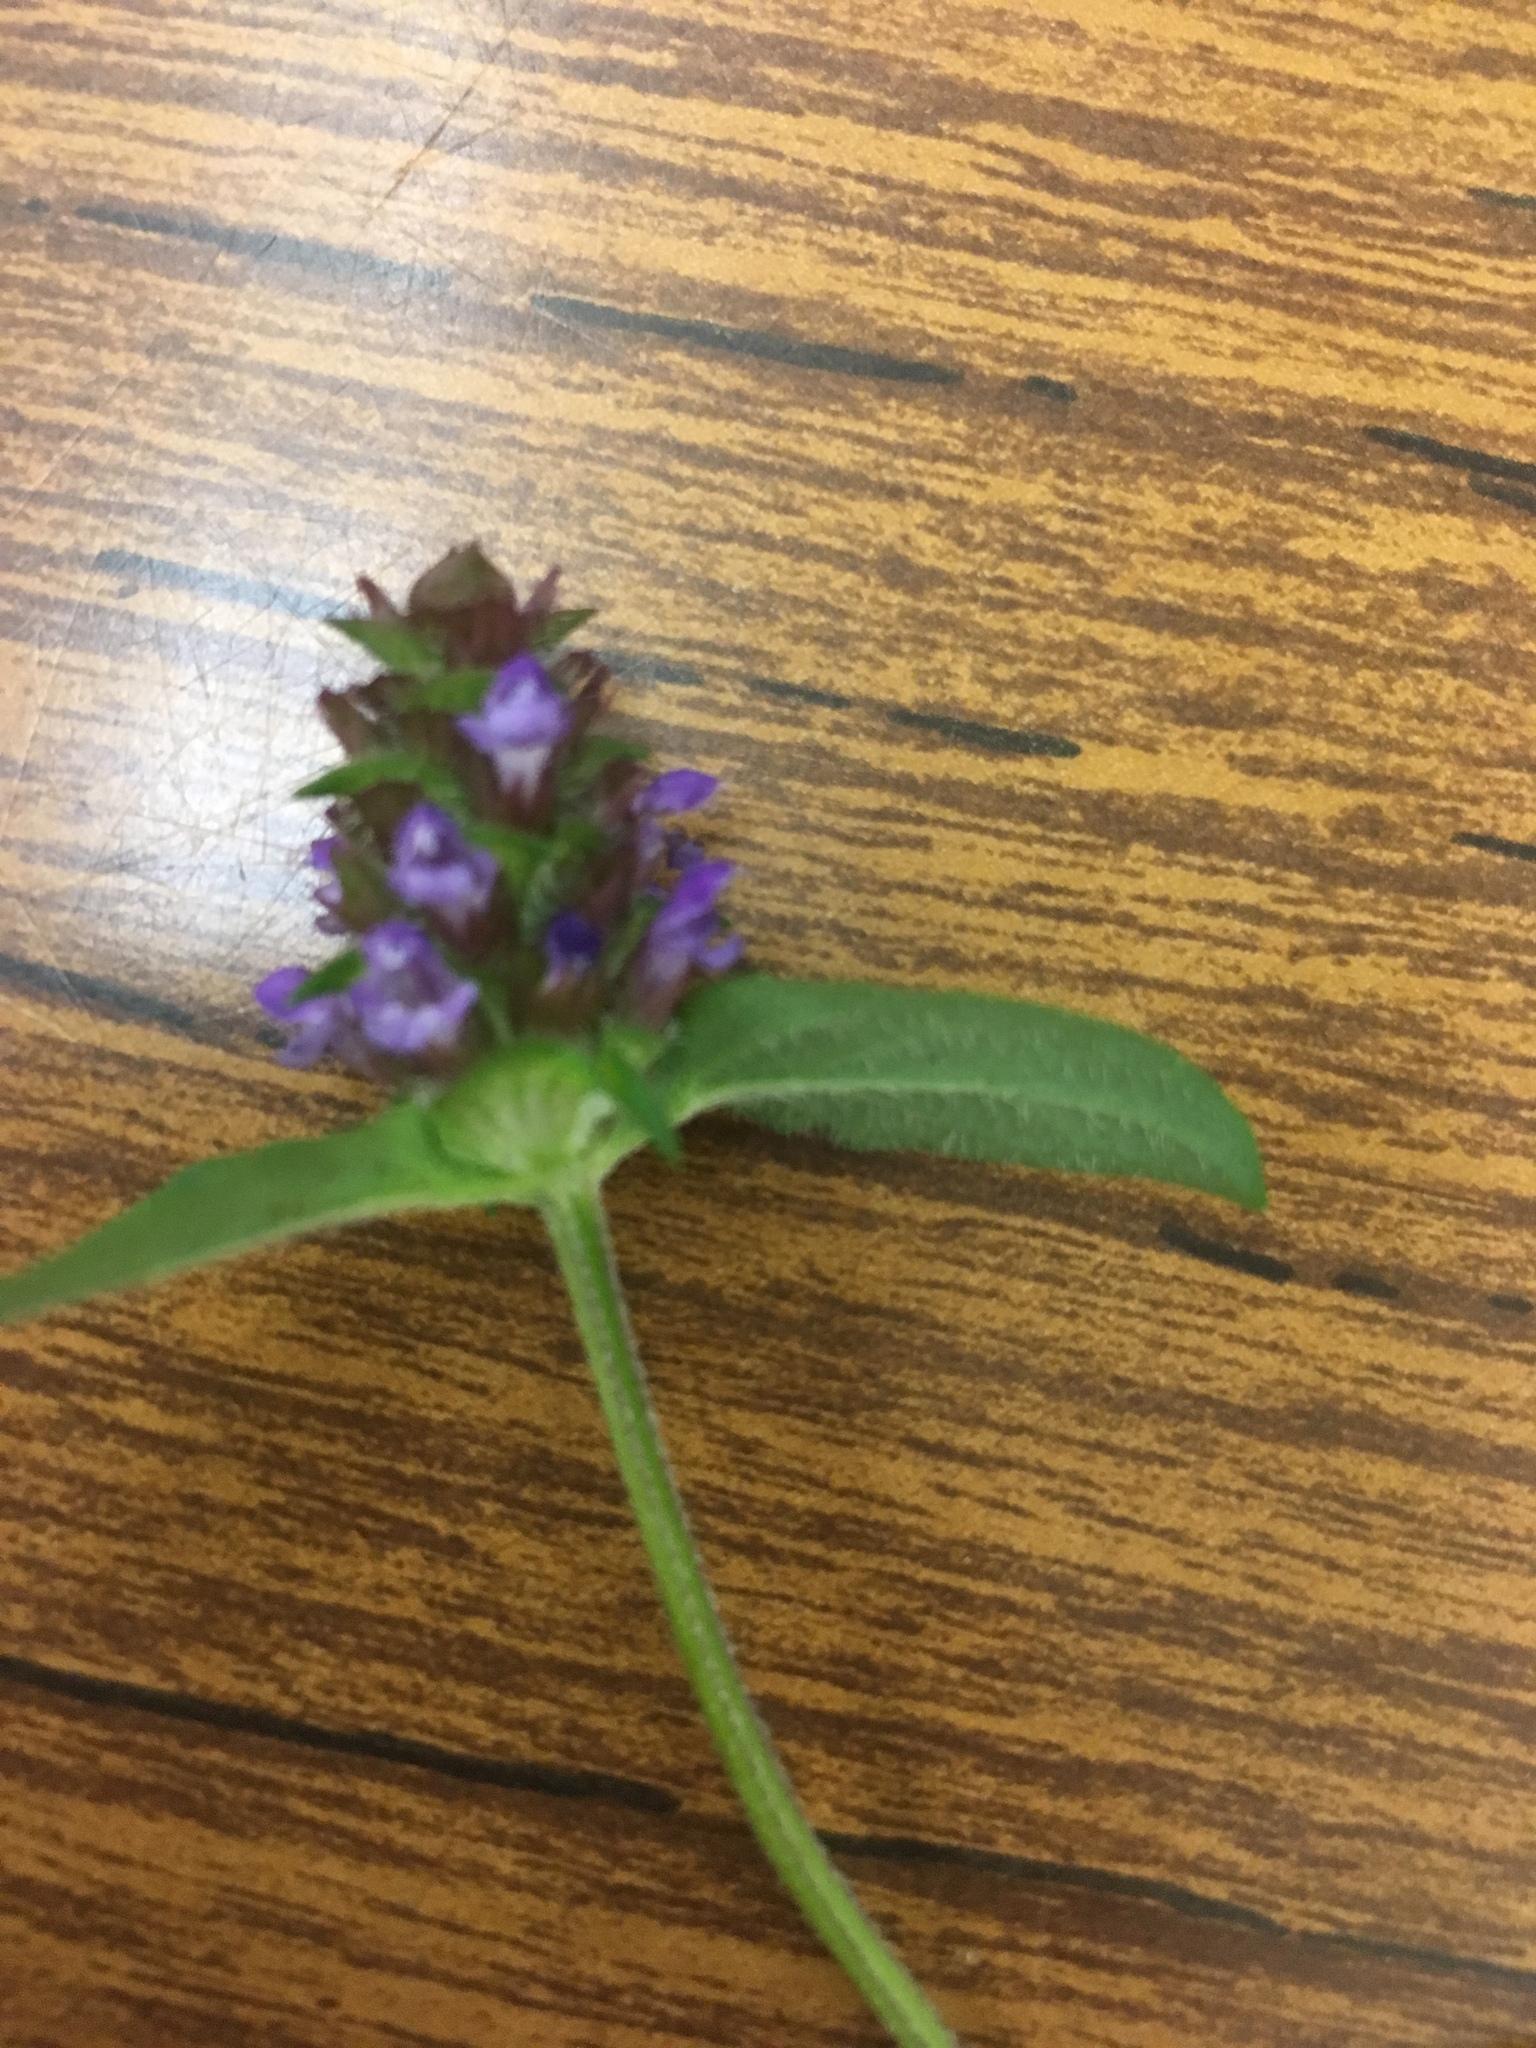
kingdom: Plantae
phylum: Tracheophyta
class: Magnoliopsida
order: Lamiales
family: Lamiaceae
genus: Prunella
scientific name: Prunella vulgaris
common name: Heal-all
